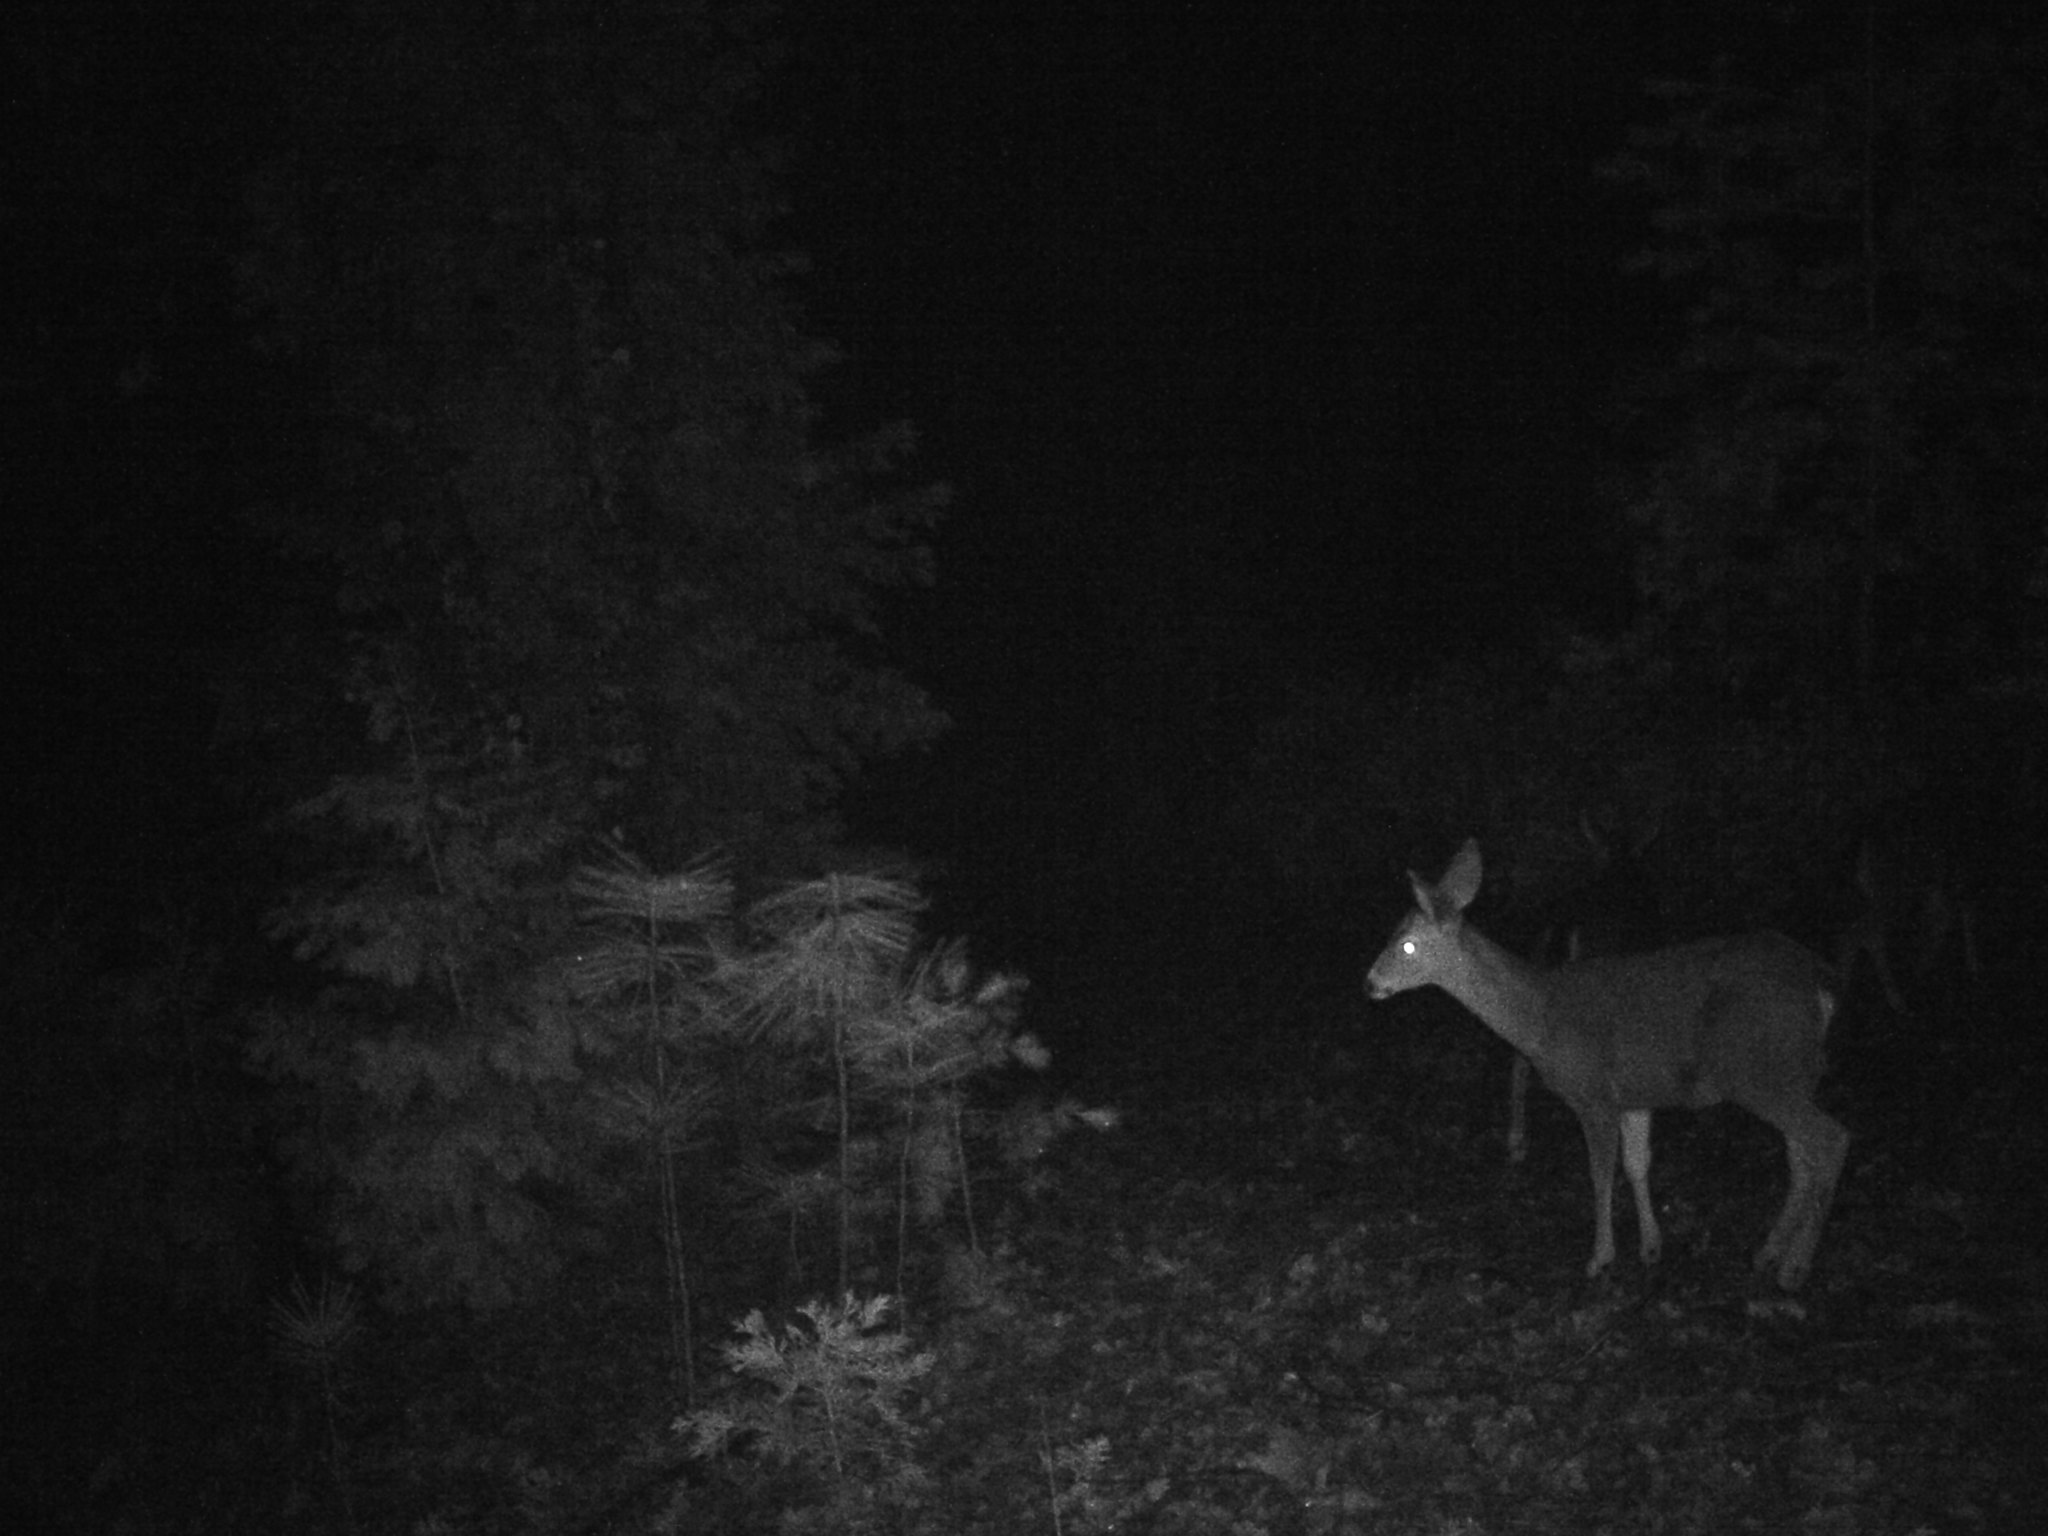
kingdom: Animalia
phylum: Chordata
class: Mammalia
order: Artiodactyla
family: Cervidae
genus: Odocoileus
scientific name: Odocoileus hemionus
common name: Mule deer
